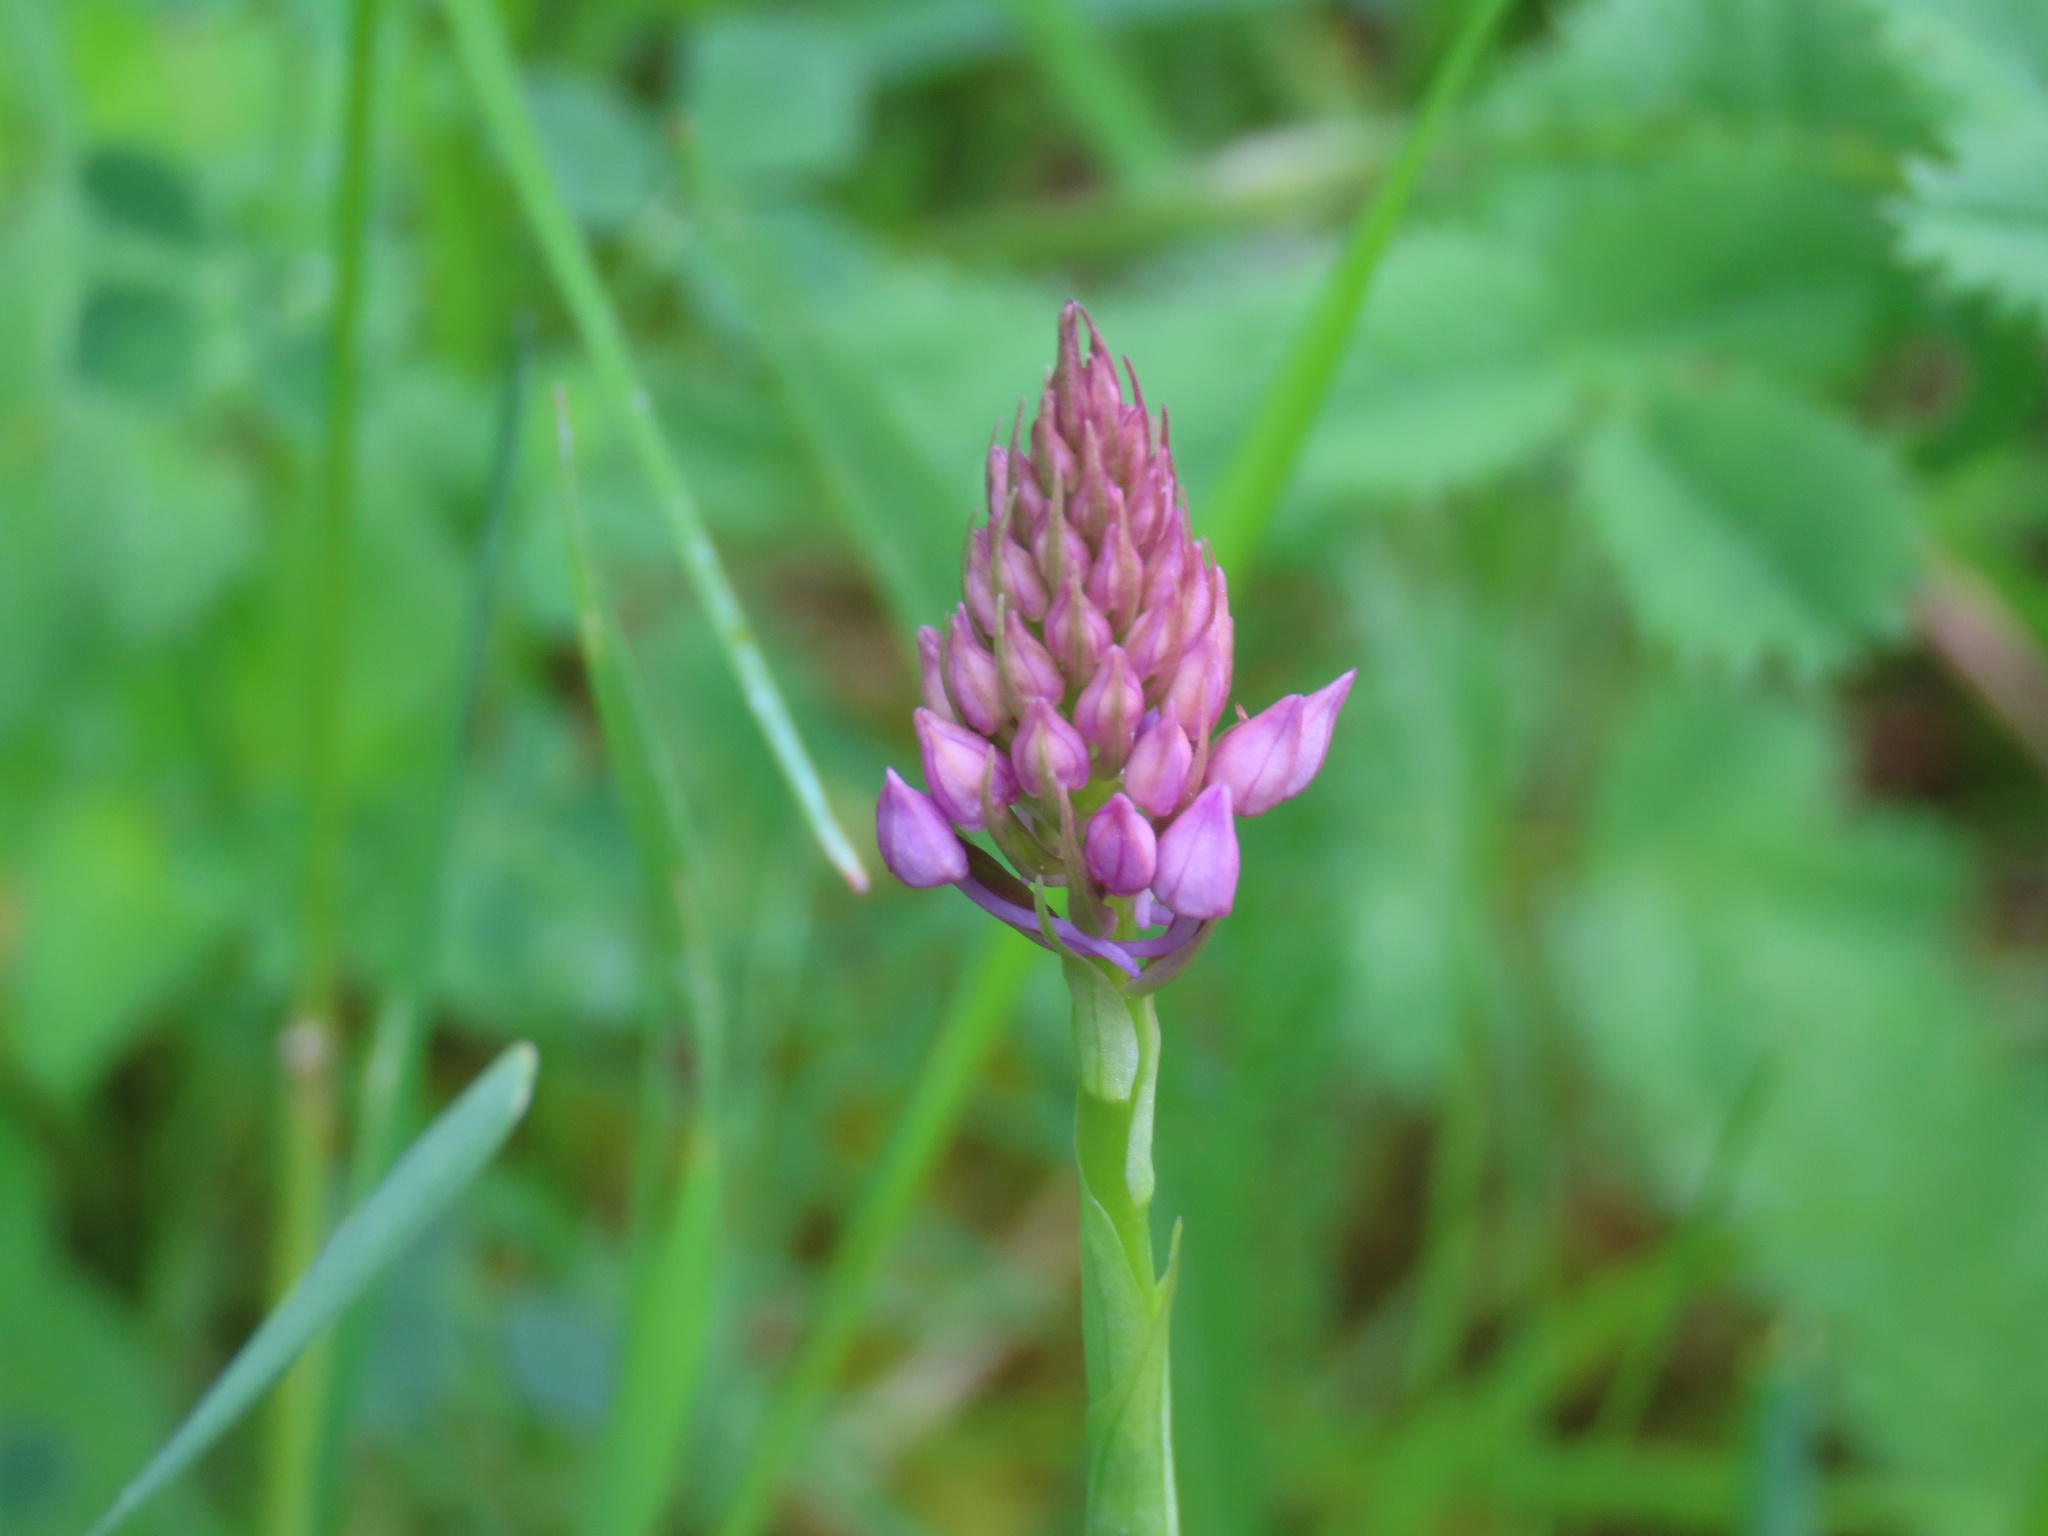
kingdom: Plantae
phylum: Tracheophyta
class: Liliopsida
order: Asparagales
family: Orchidaceae
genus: Anacamptis
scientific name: Anacamptis pyramidalis
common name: Pyramidal orchid
